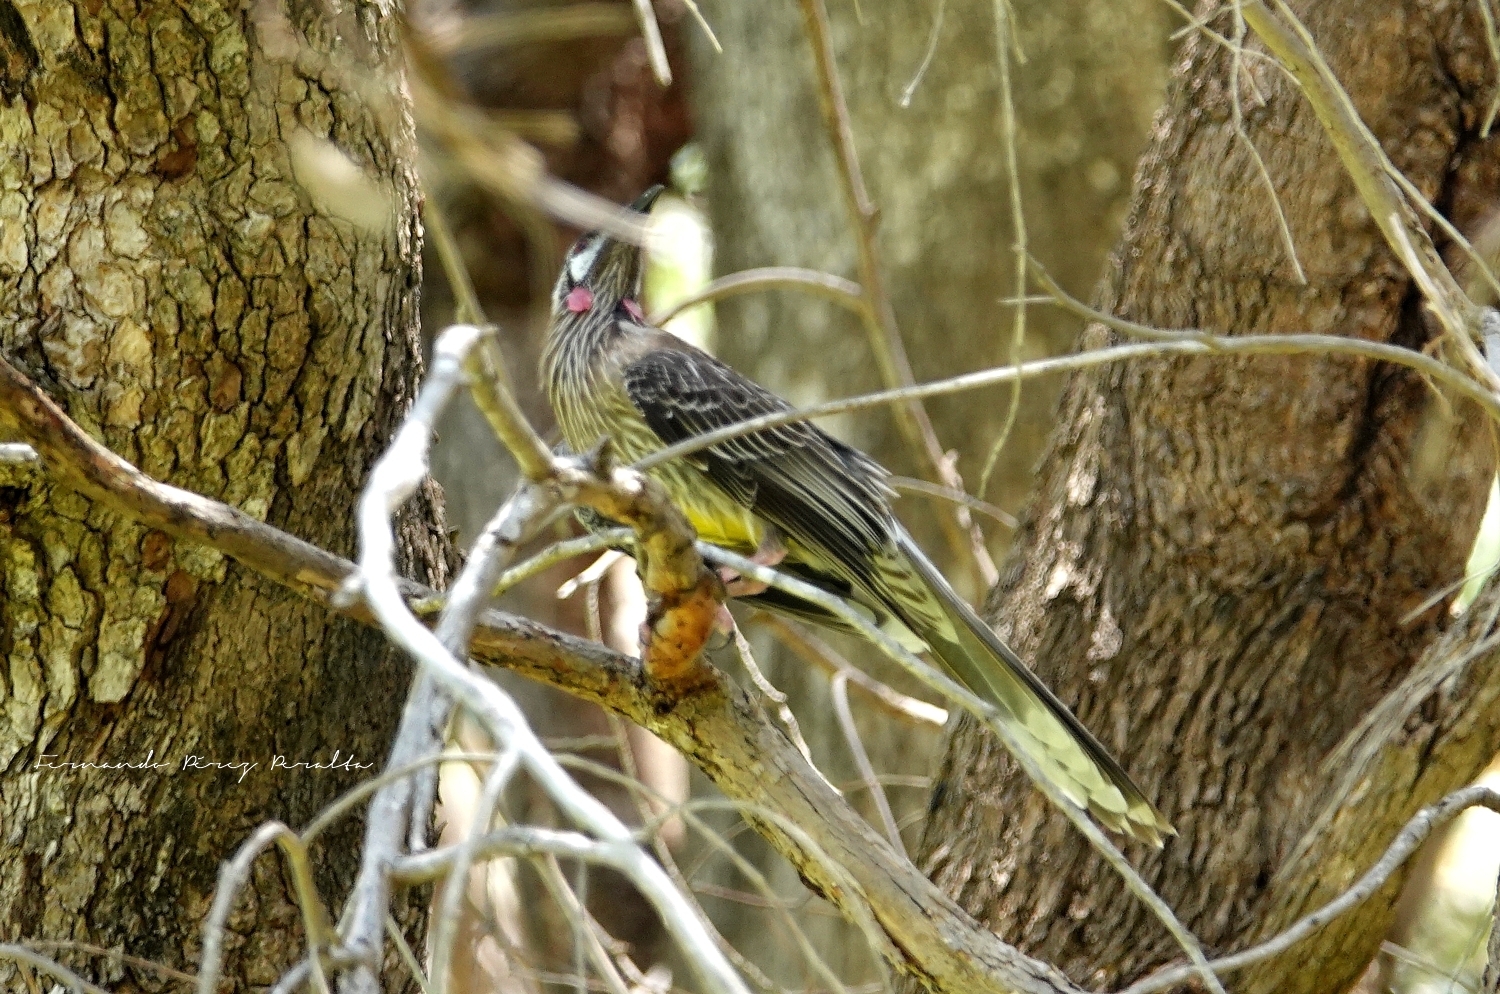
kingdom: Animalia
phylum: Chordata
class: Aves
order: Passeriformes
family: Meliphagidae
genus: Anthochaera
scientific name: Anthochaera carunculata
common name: Red wattlebird
